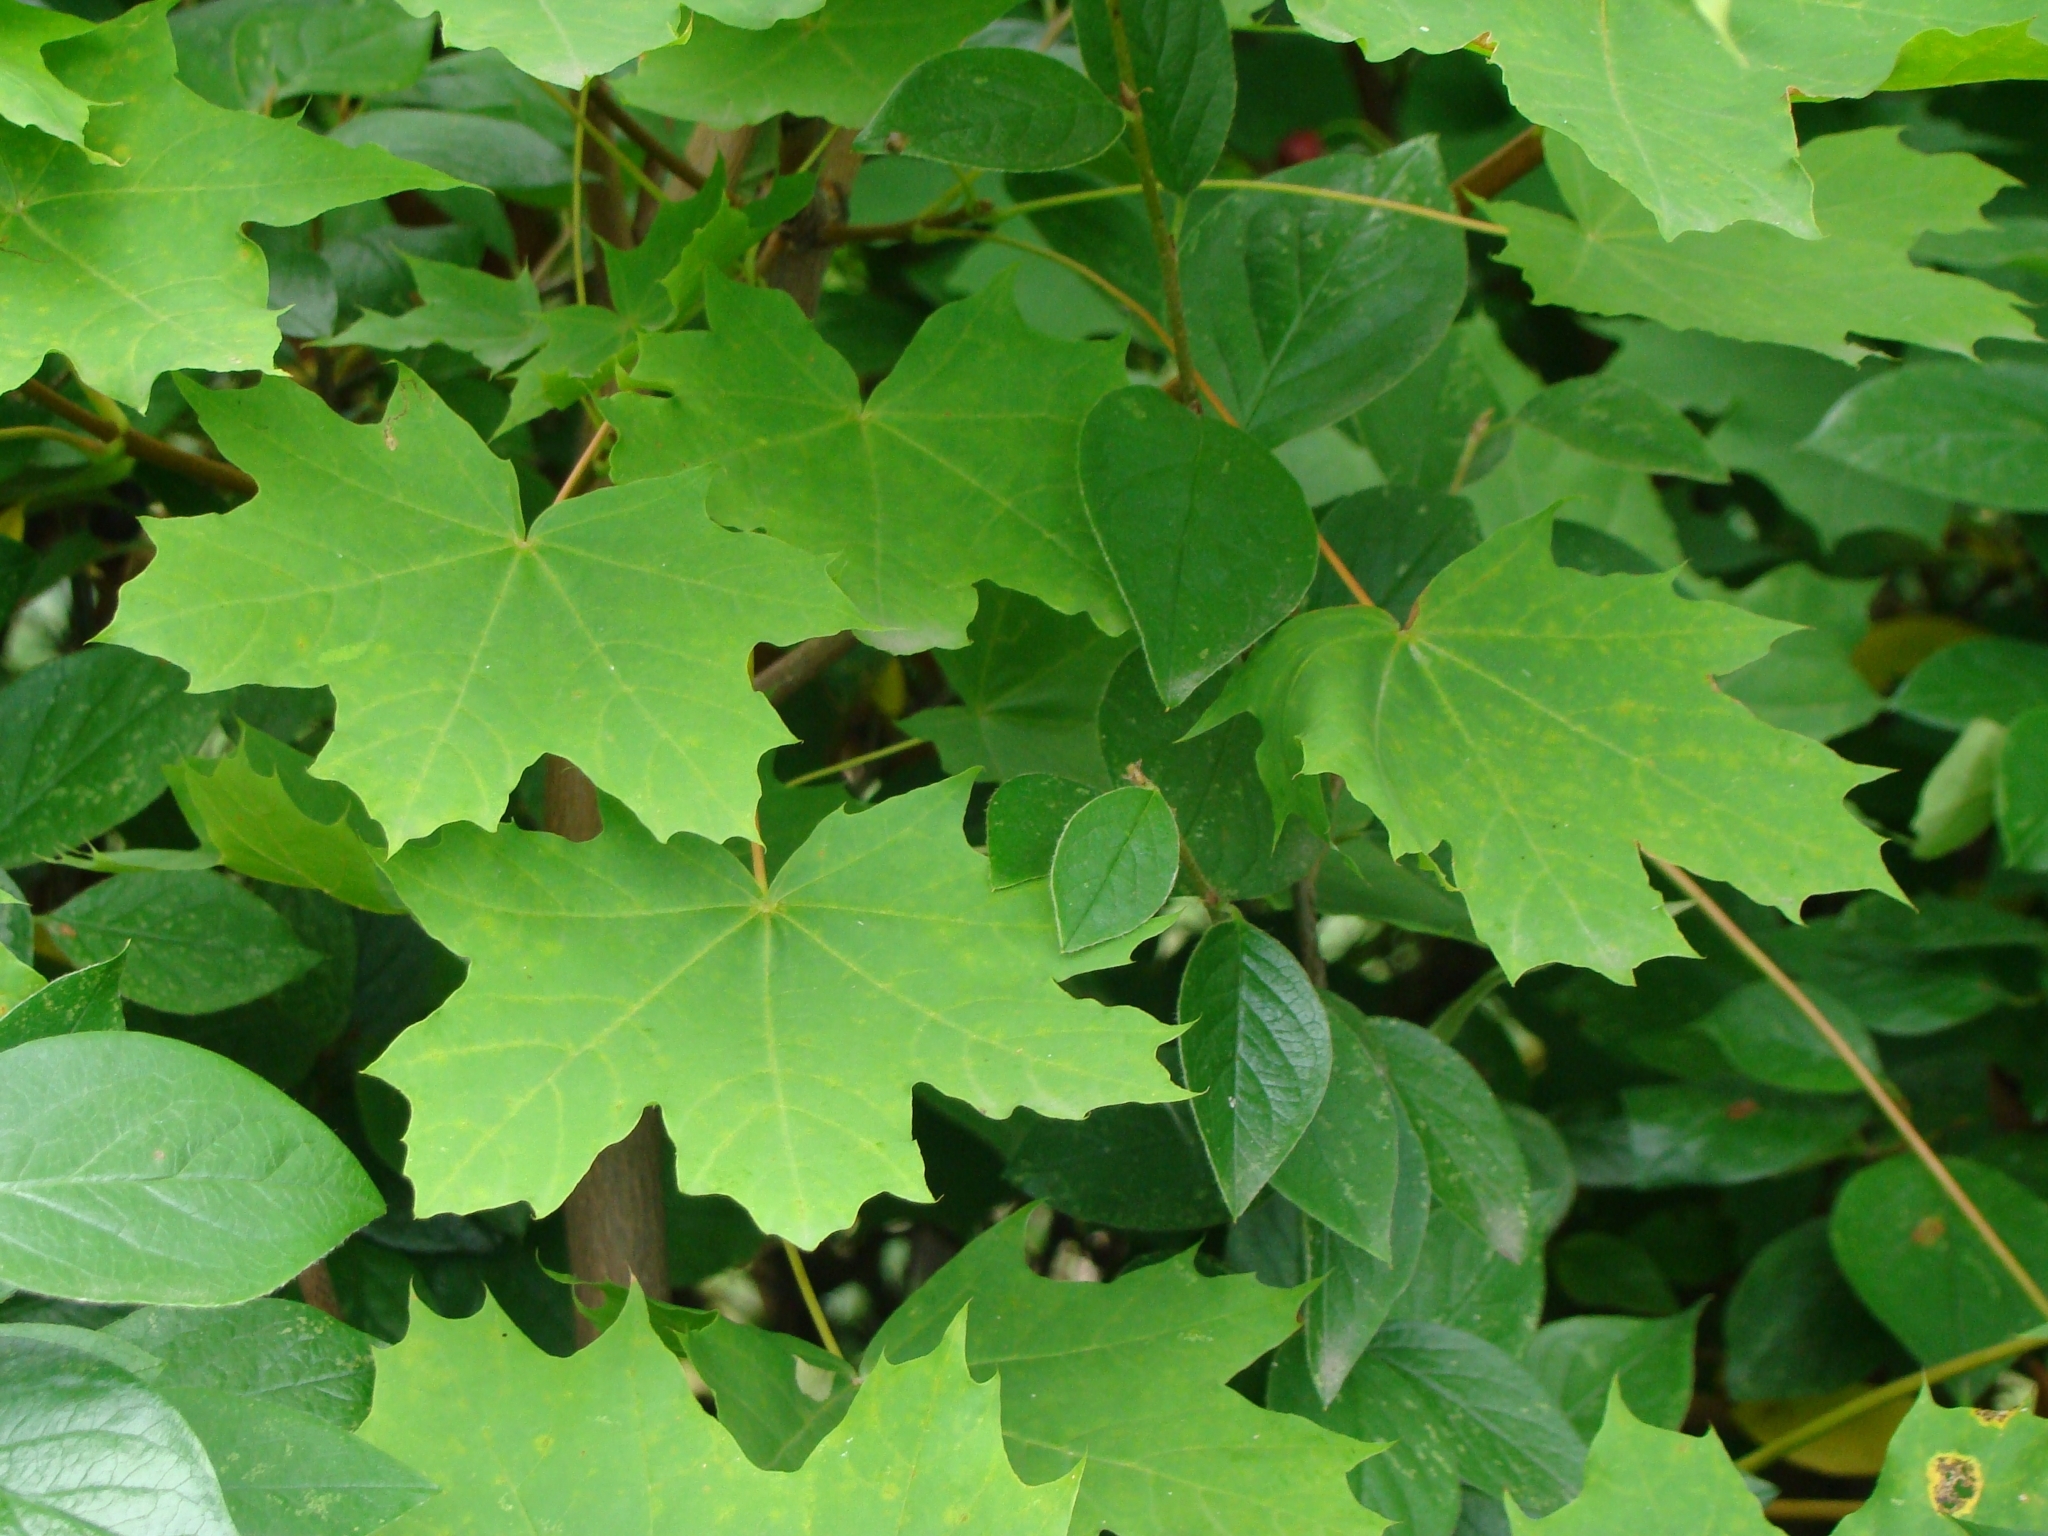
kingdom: Plantae
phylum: Tracheophyta
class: Magnoliopsida
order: Sapindales
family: Sapindaceae
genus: Acer
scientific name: Acer platanoides
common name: Norway maple
